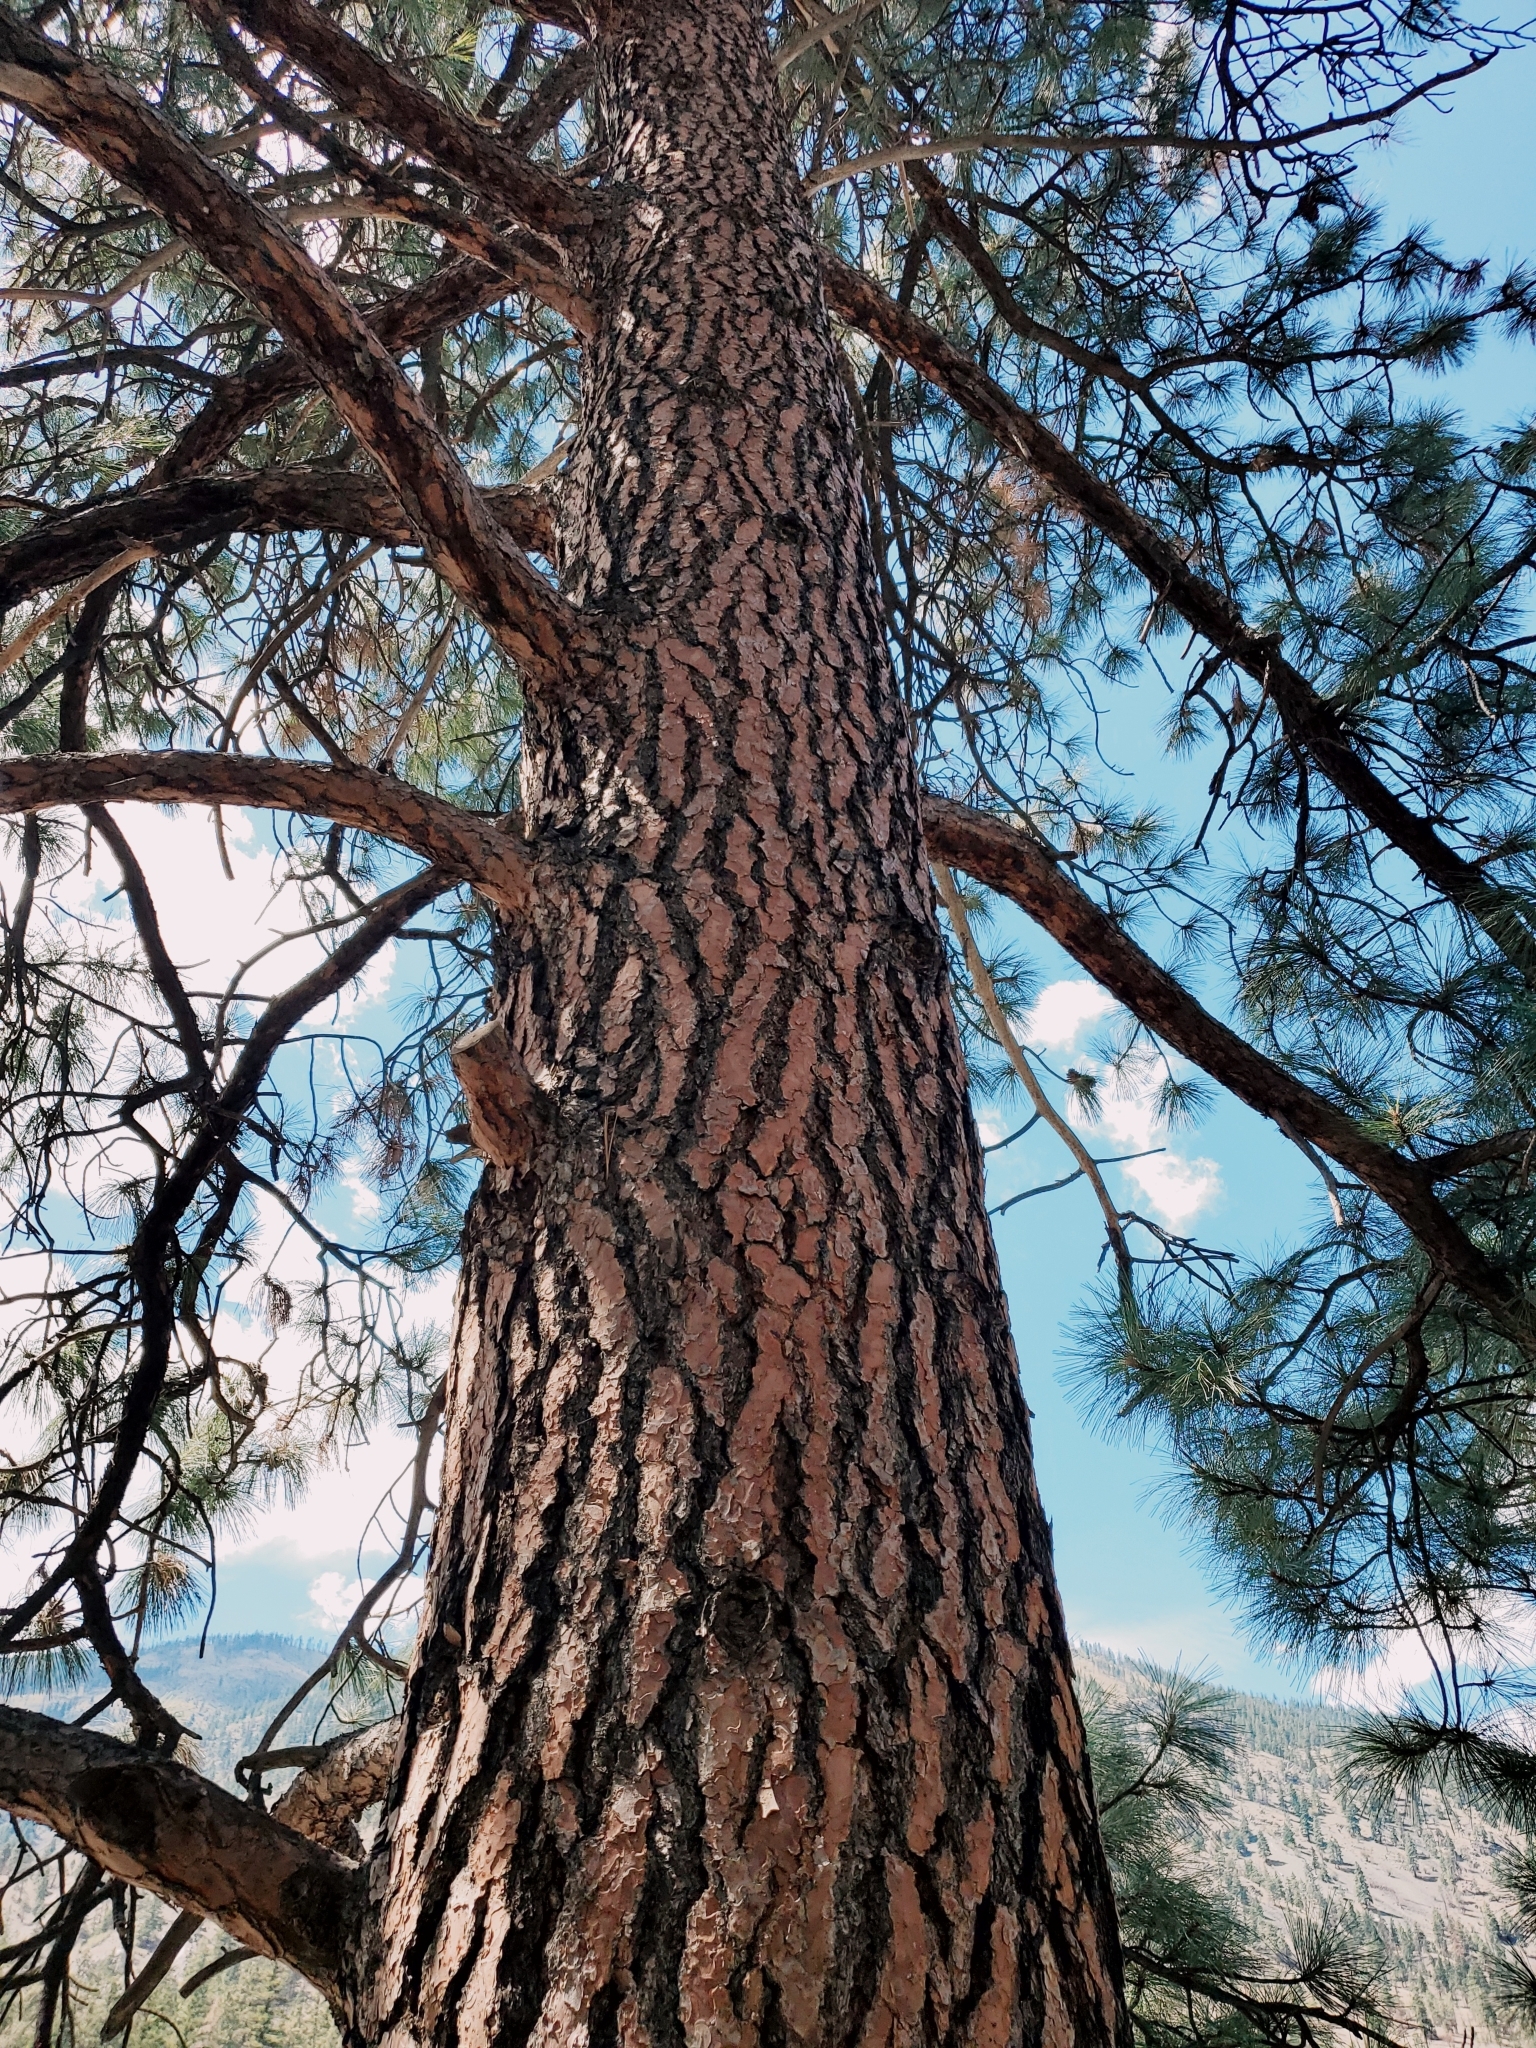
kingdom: Plantae
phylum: Tracheophyta
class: Pinopsida
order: Pinales
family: Pinaceae
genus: Pinus
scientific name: Pinus ponderosa
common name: Western yellow-pine
